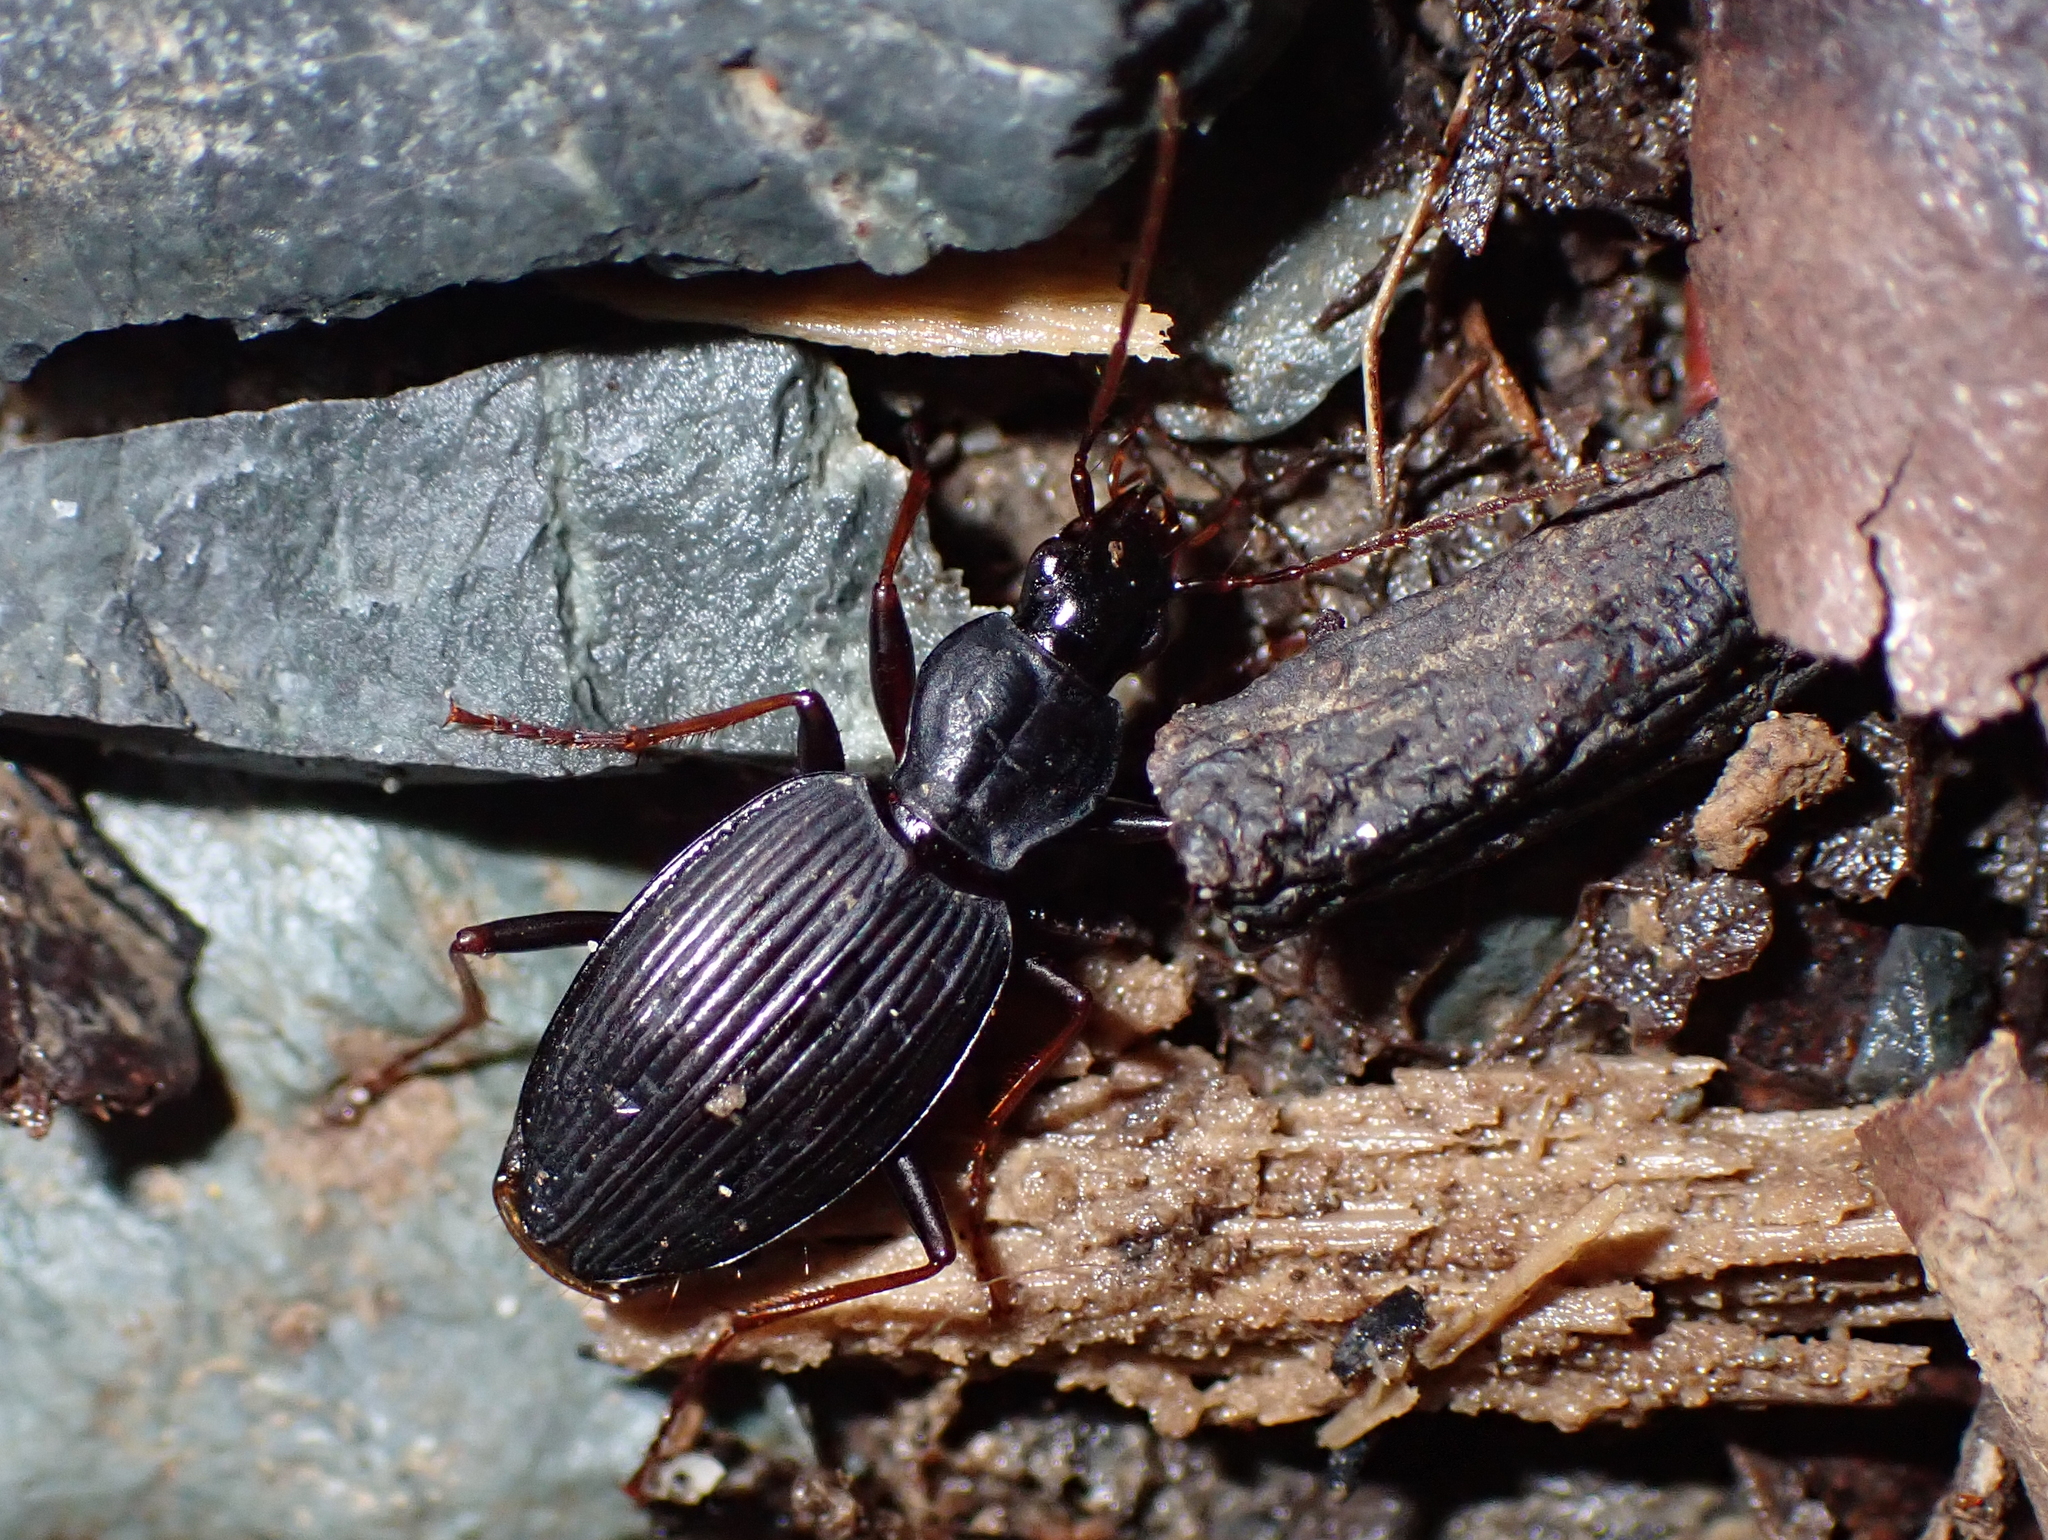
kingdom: Animalia
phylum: Arthropoda
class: Insecta
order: Coleoptera
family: Carabidae
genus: Ctenognathus
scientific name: Ctenognathus cardiophorus
